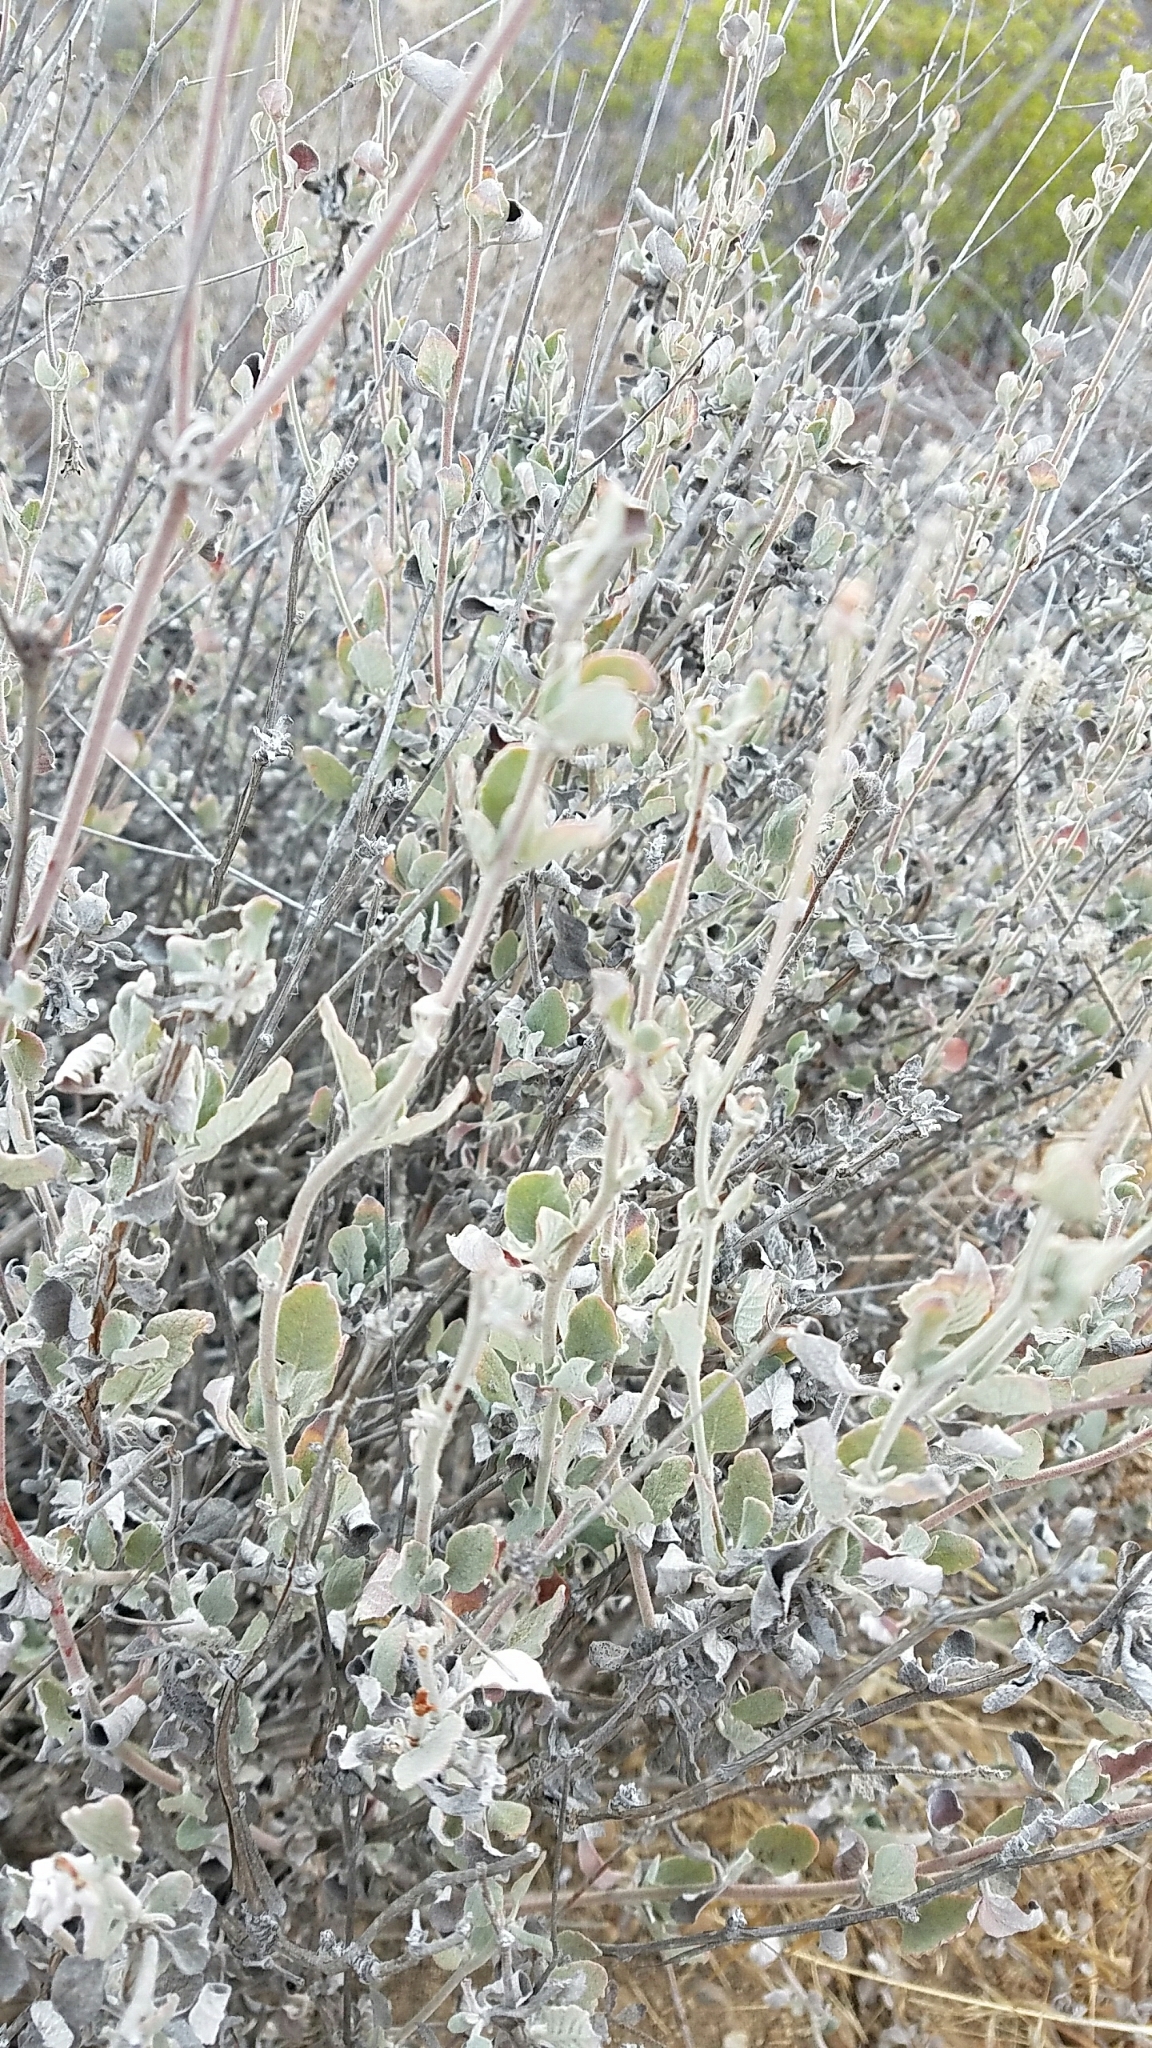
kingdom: Plantae
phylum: Tracheophyta
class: Magnoliopsida
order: Caryophyllales
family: Polygonaceae
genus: Eriogonum
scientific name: Eriogonum cinereum
